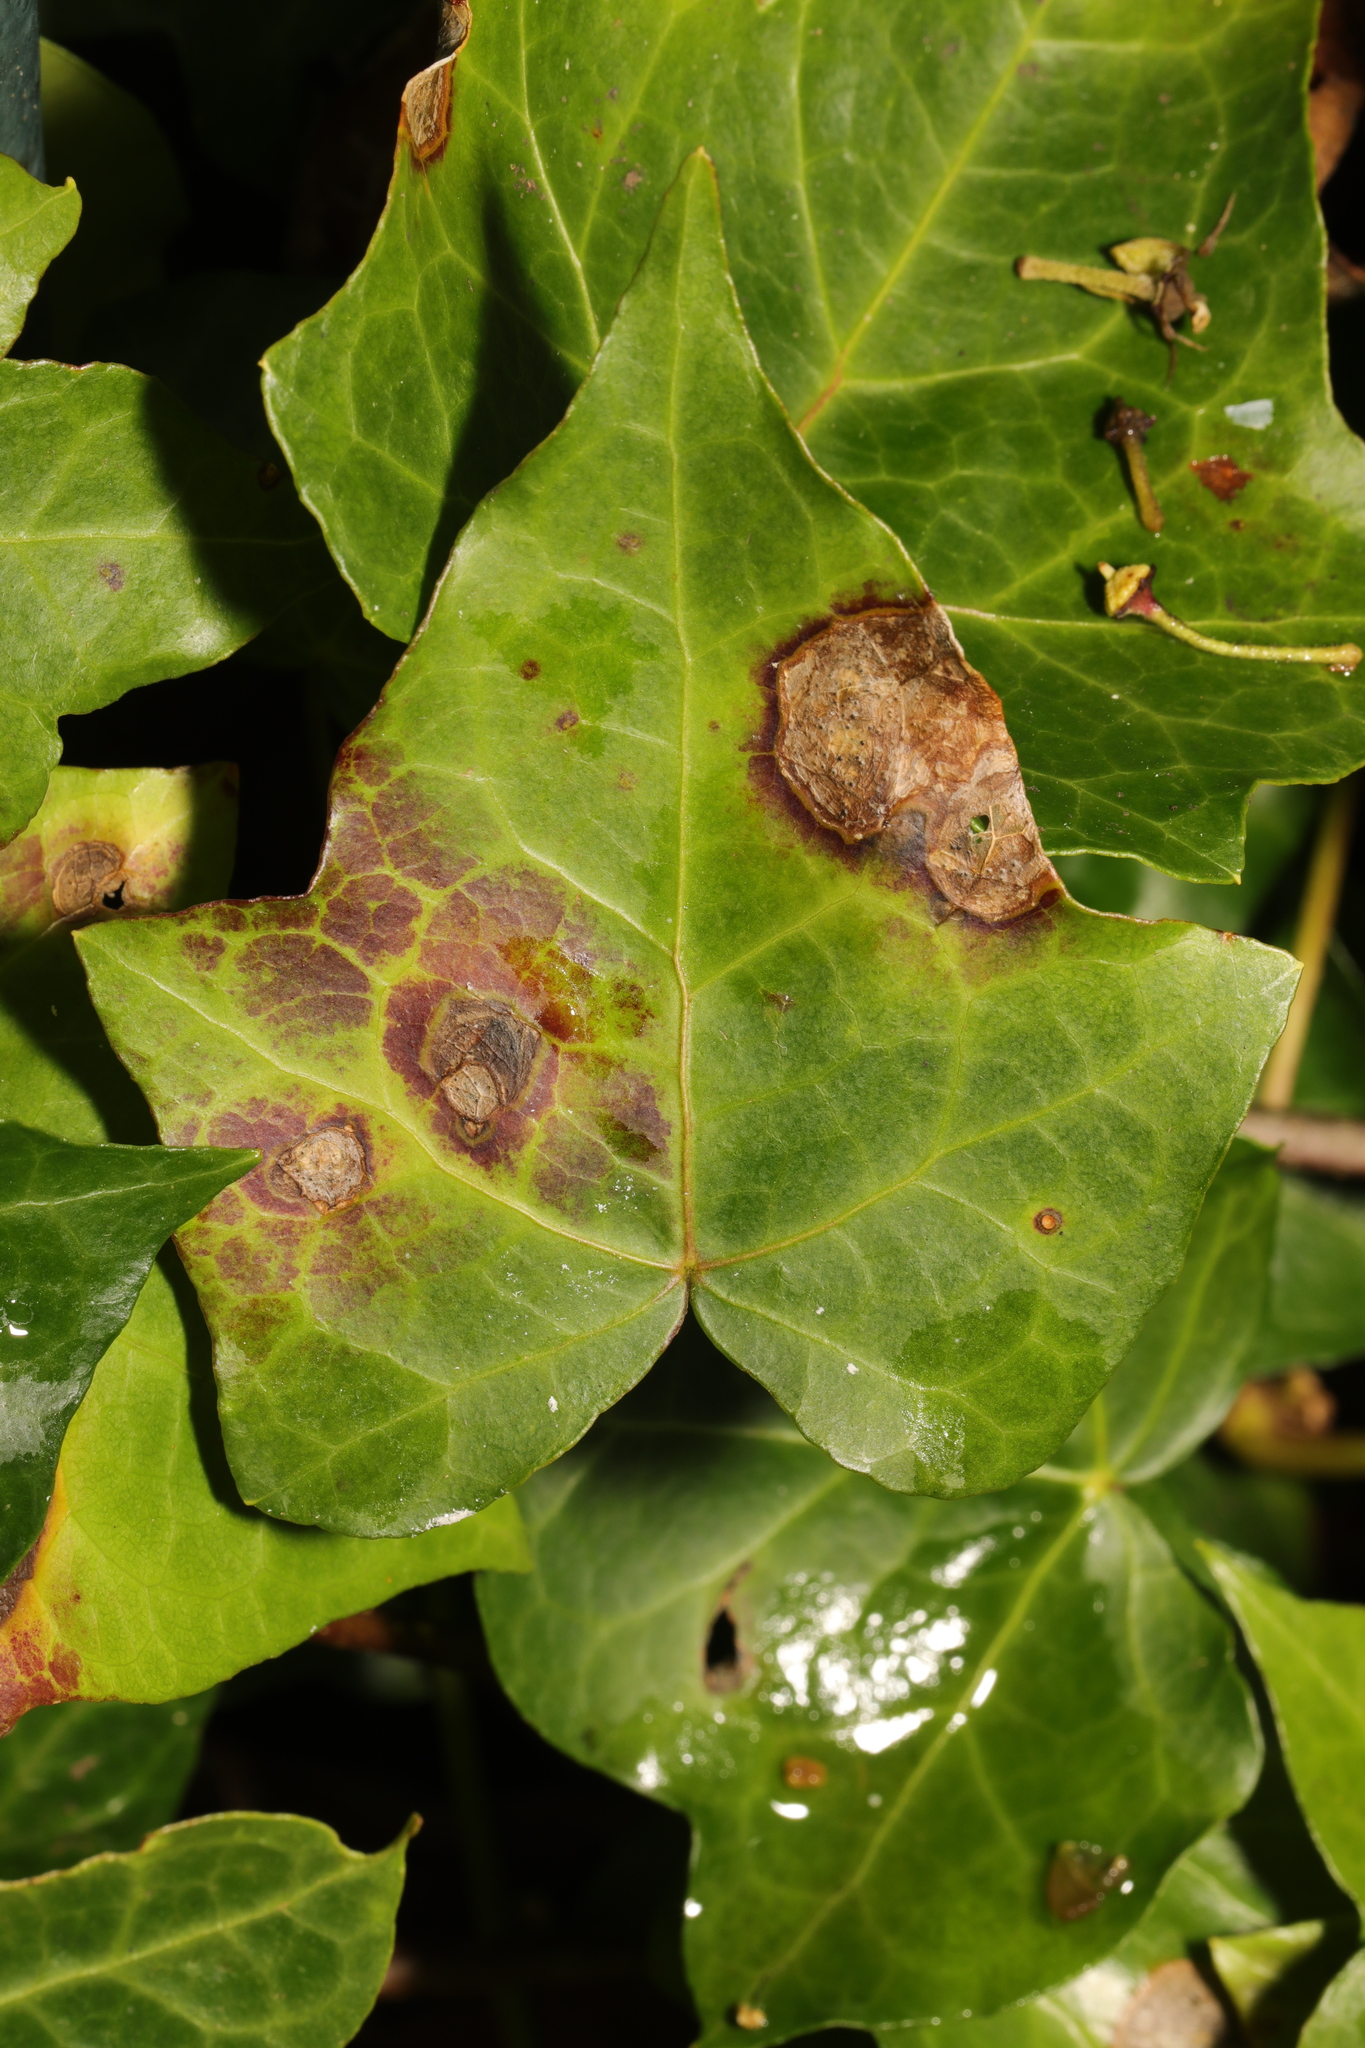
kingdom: Fungi
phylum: Ascomycota
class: Dothideomycetes
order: Pleosporales
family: Didymellaceae
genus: Boeremia
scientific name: Boeremia hedericola
